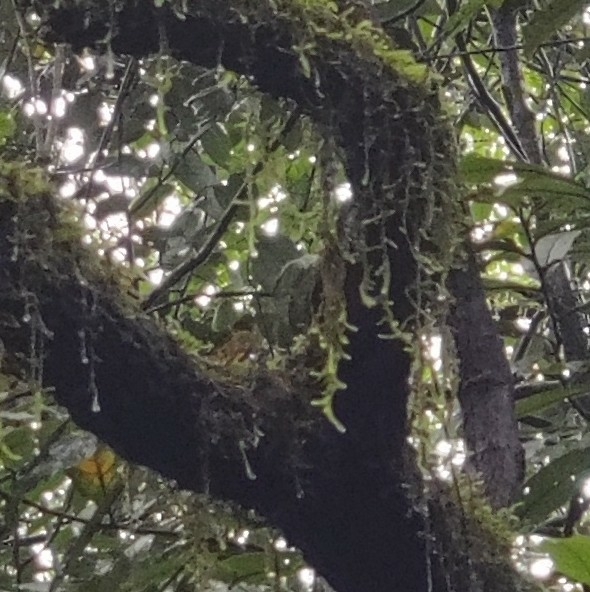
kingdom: Animalia
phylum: Chordata
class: Squamata
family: Viperidae
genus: Craspedocephalus
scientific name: Craspedocephalus malabaricus
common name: Malabarian pit viper
